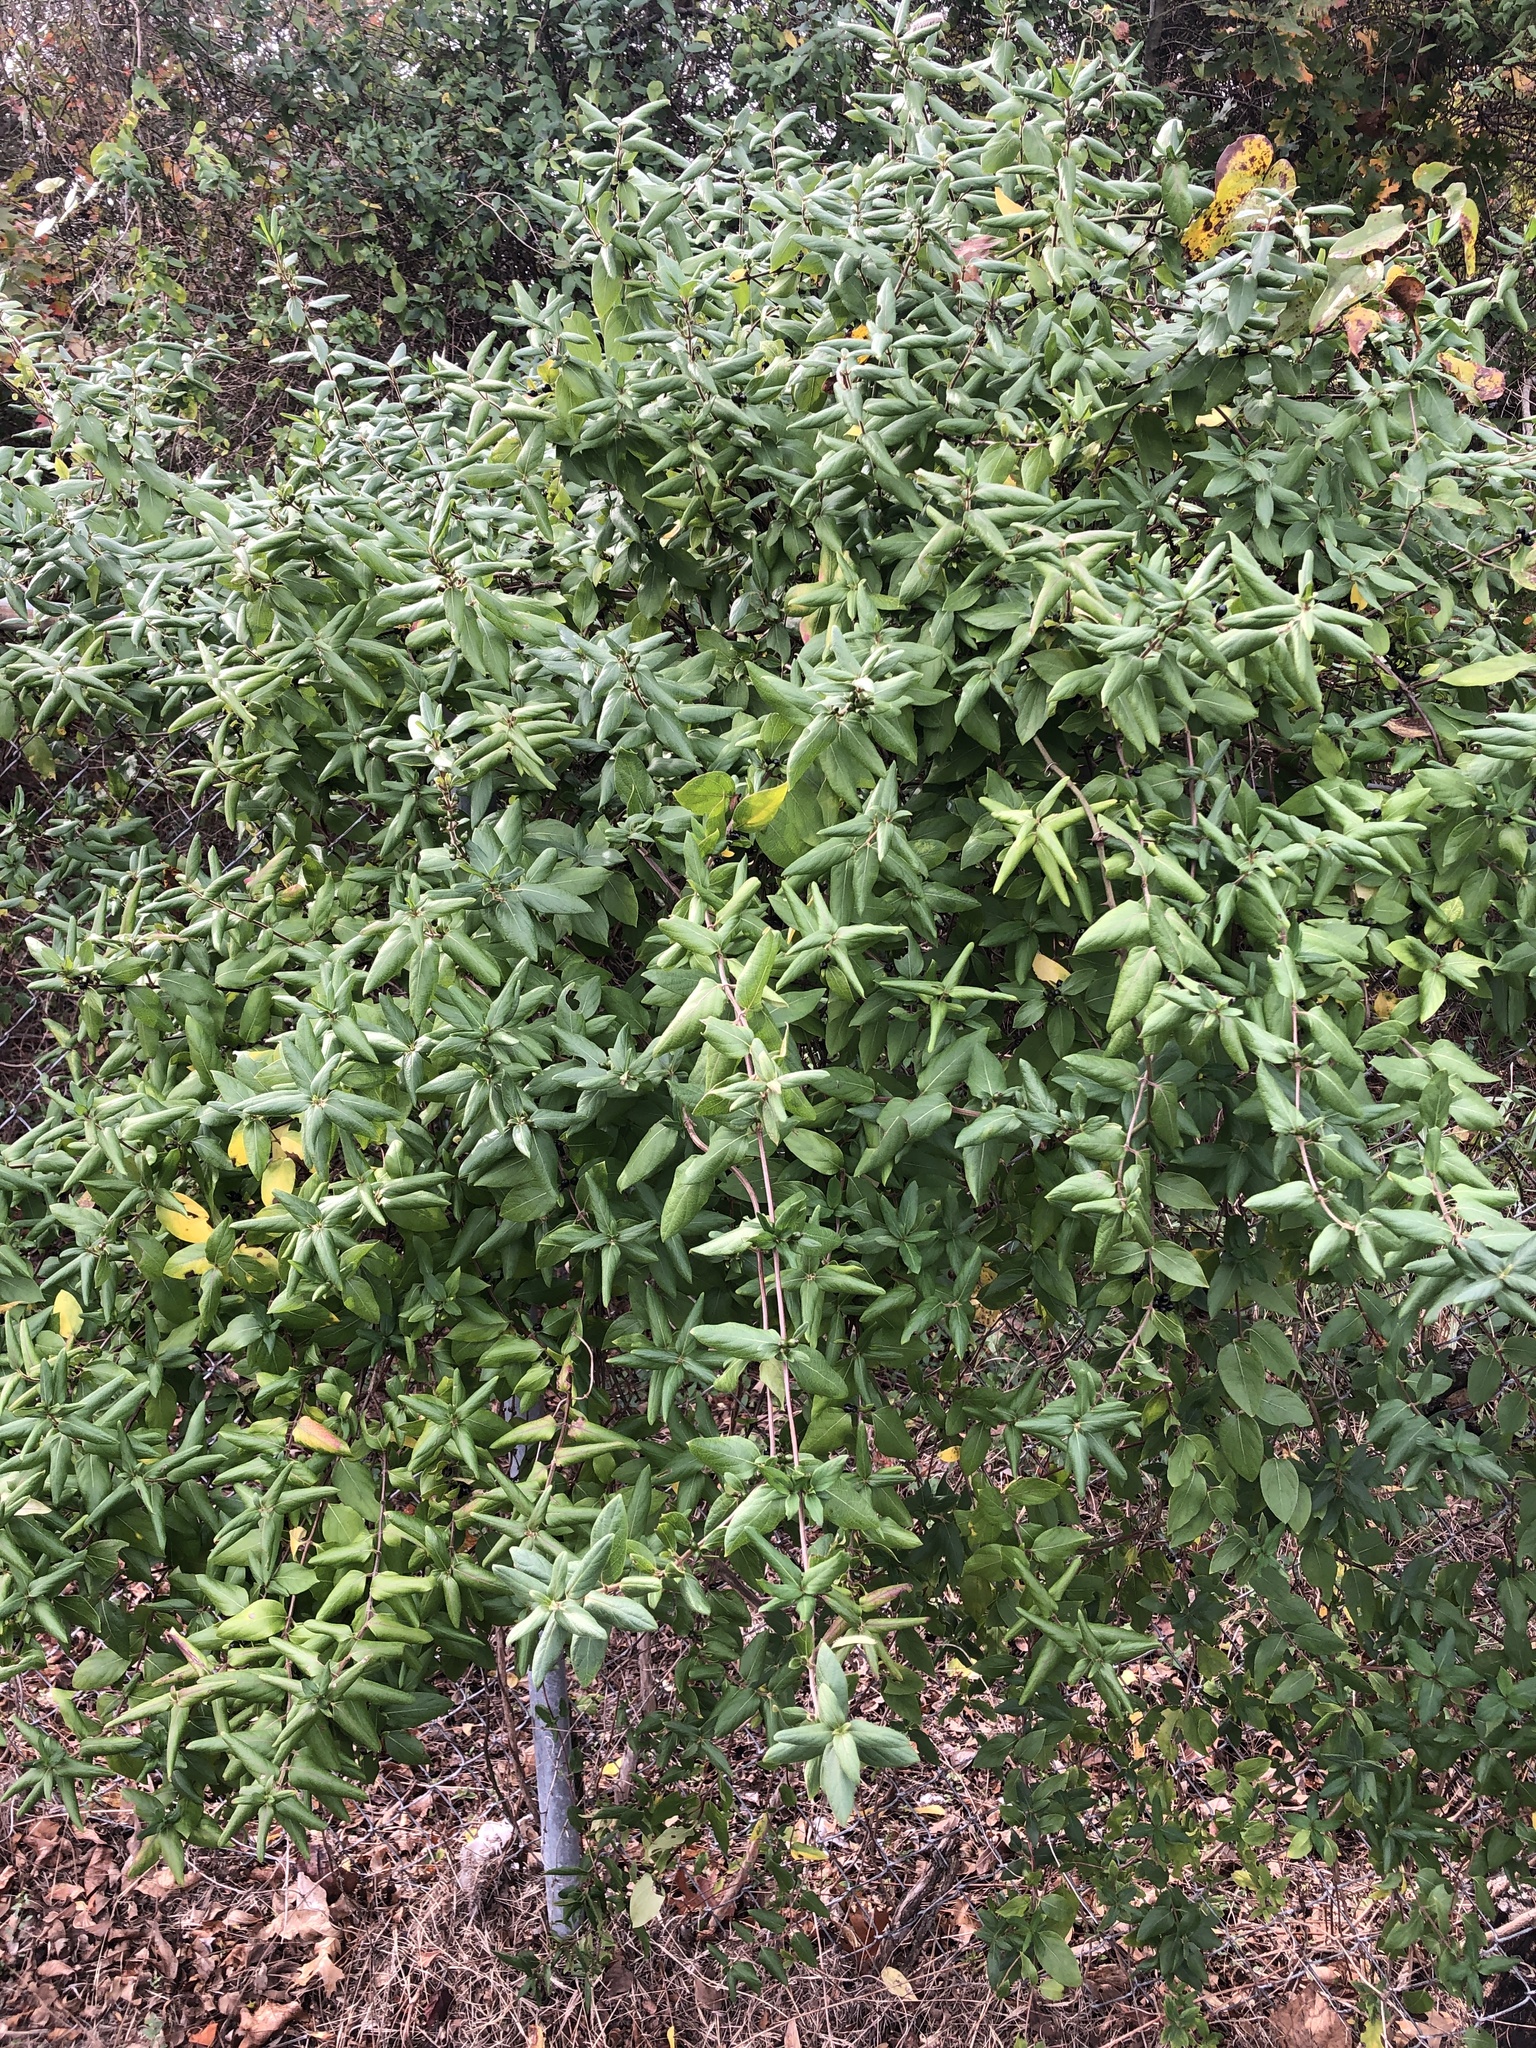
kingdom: Plantae
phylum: Tracheophyta
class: Magnoliopsida
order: Dipsacales
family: Caprifoliaceae
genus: Lonicera
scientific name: Lonicera japonica
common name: Japanese honeysuckle
